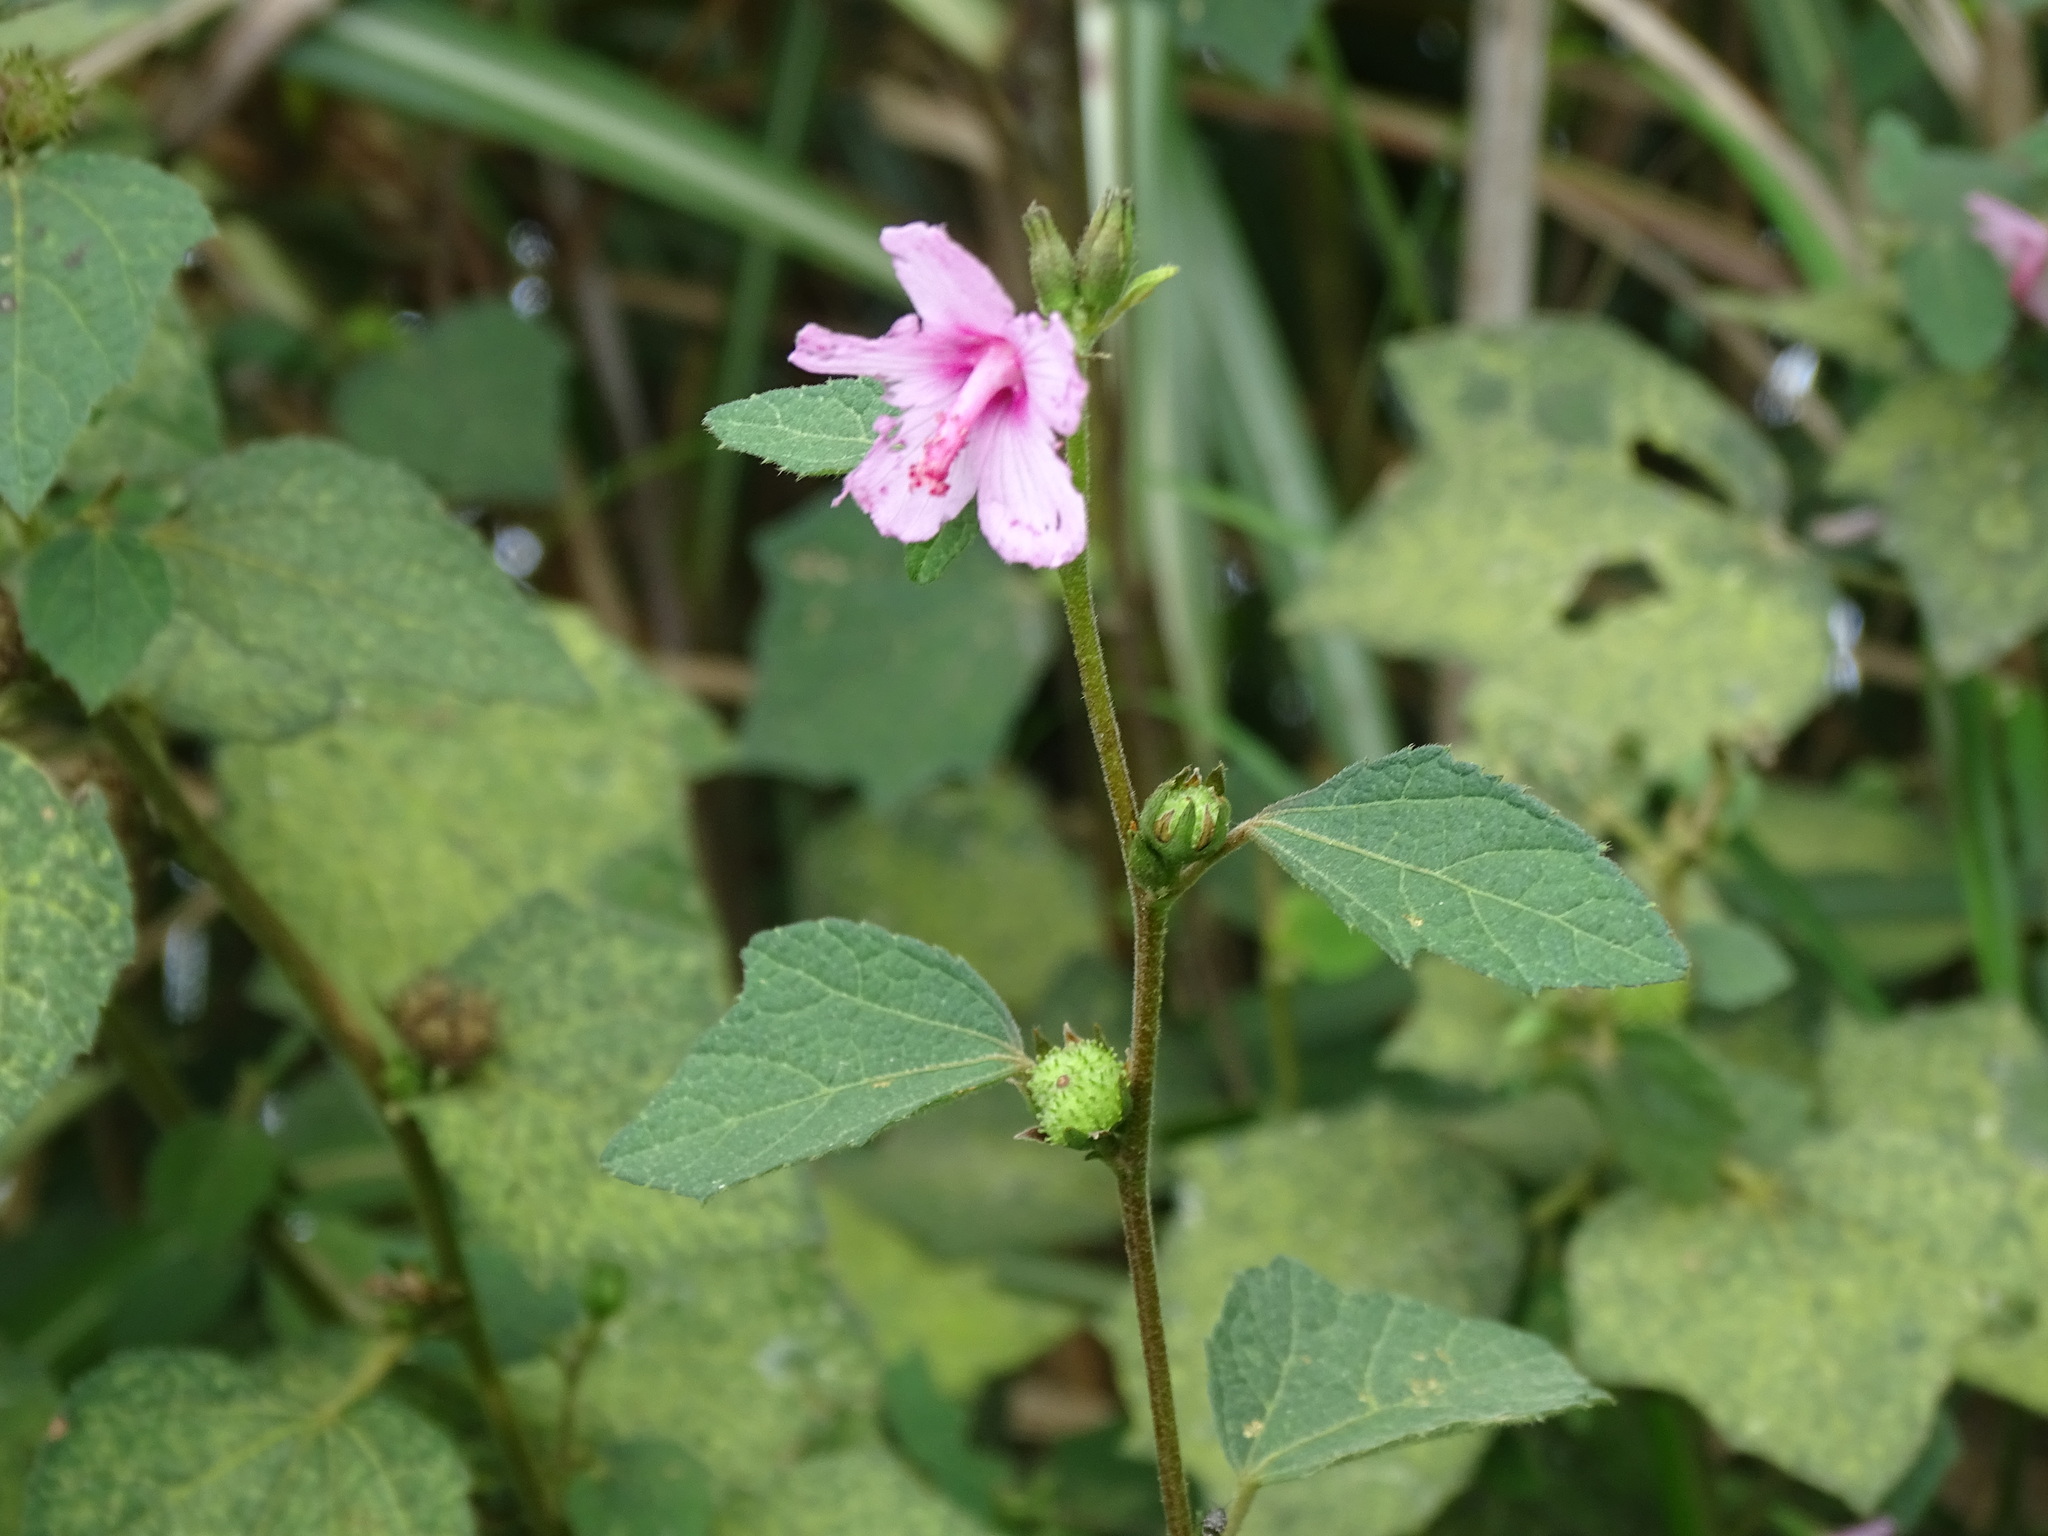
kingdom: Plantae
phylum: Tracheophyta
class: Magnoliopsida
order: Malvales
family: Malvaceae
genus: Urena
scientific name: Urena lobata
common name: Caesarweed
